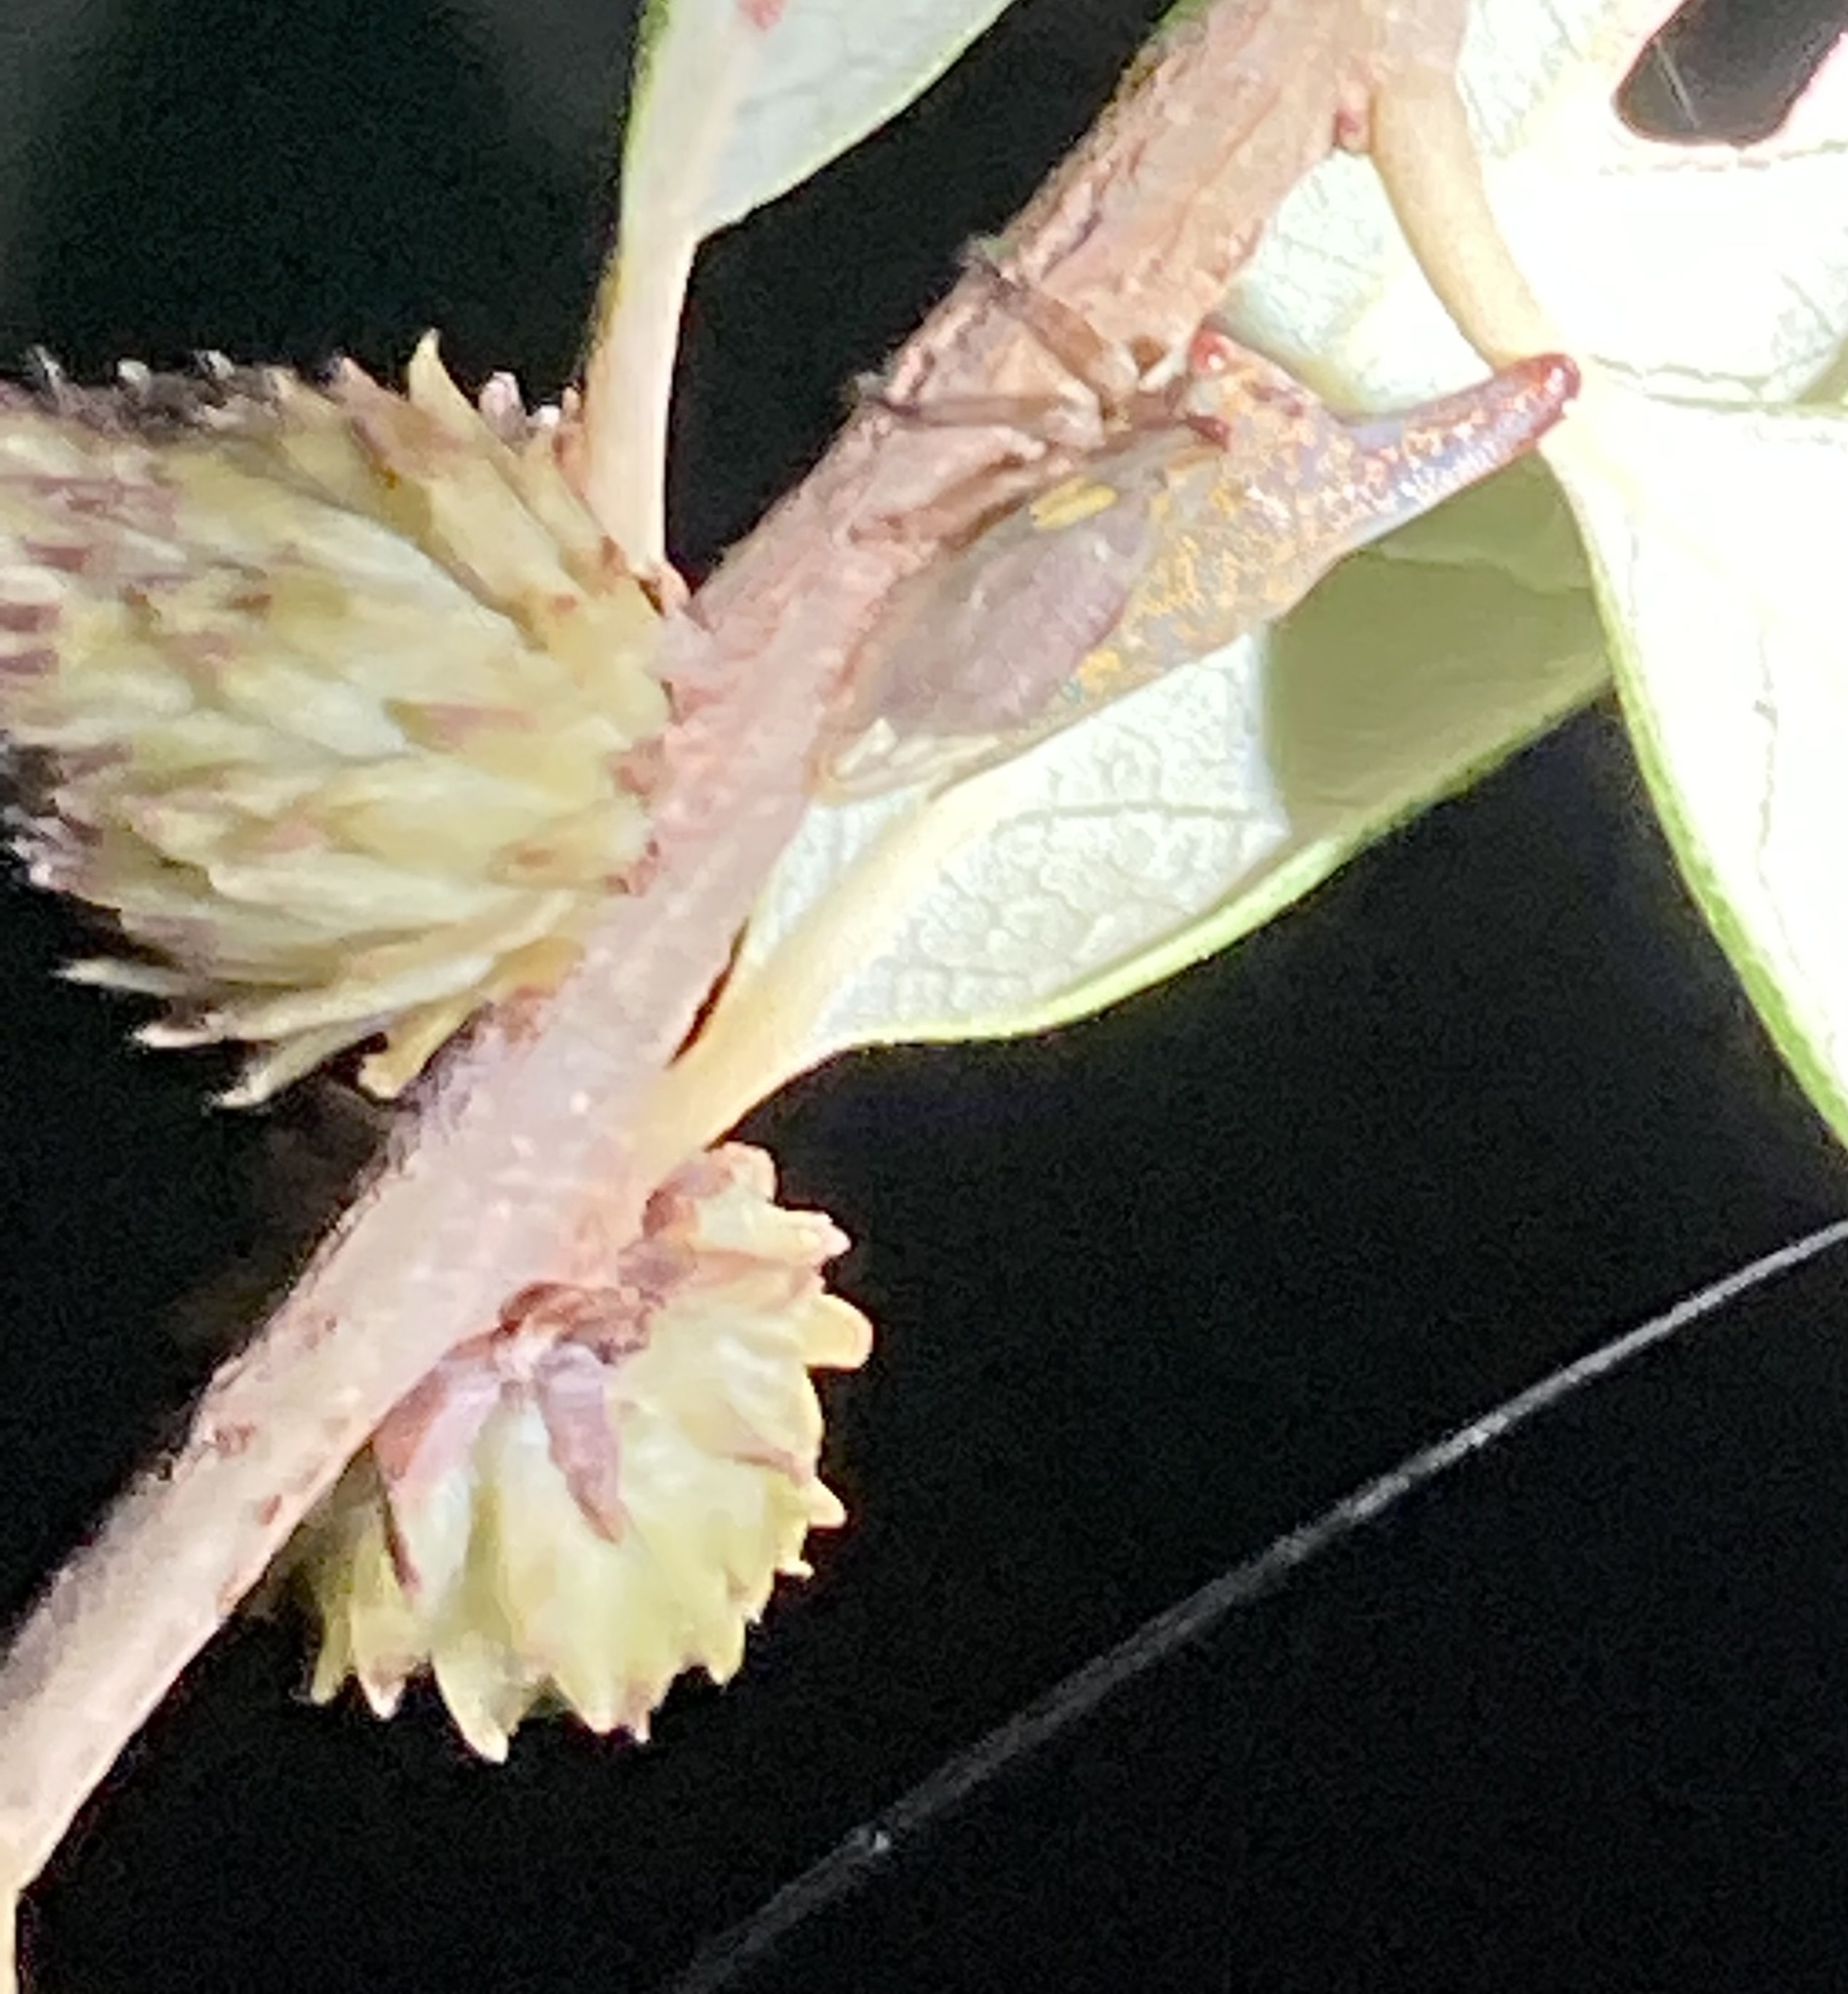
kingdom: Animalia
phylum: Arthropoda
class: Insecta
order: Hymenoptera
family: Cynipidae
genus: Andricus
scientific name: Andricus quercusfoliatus
